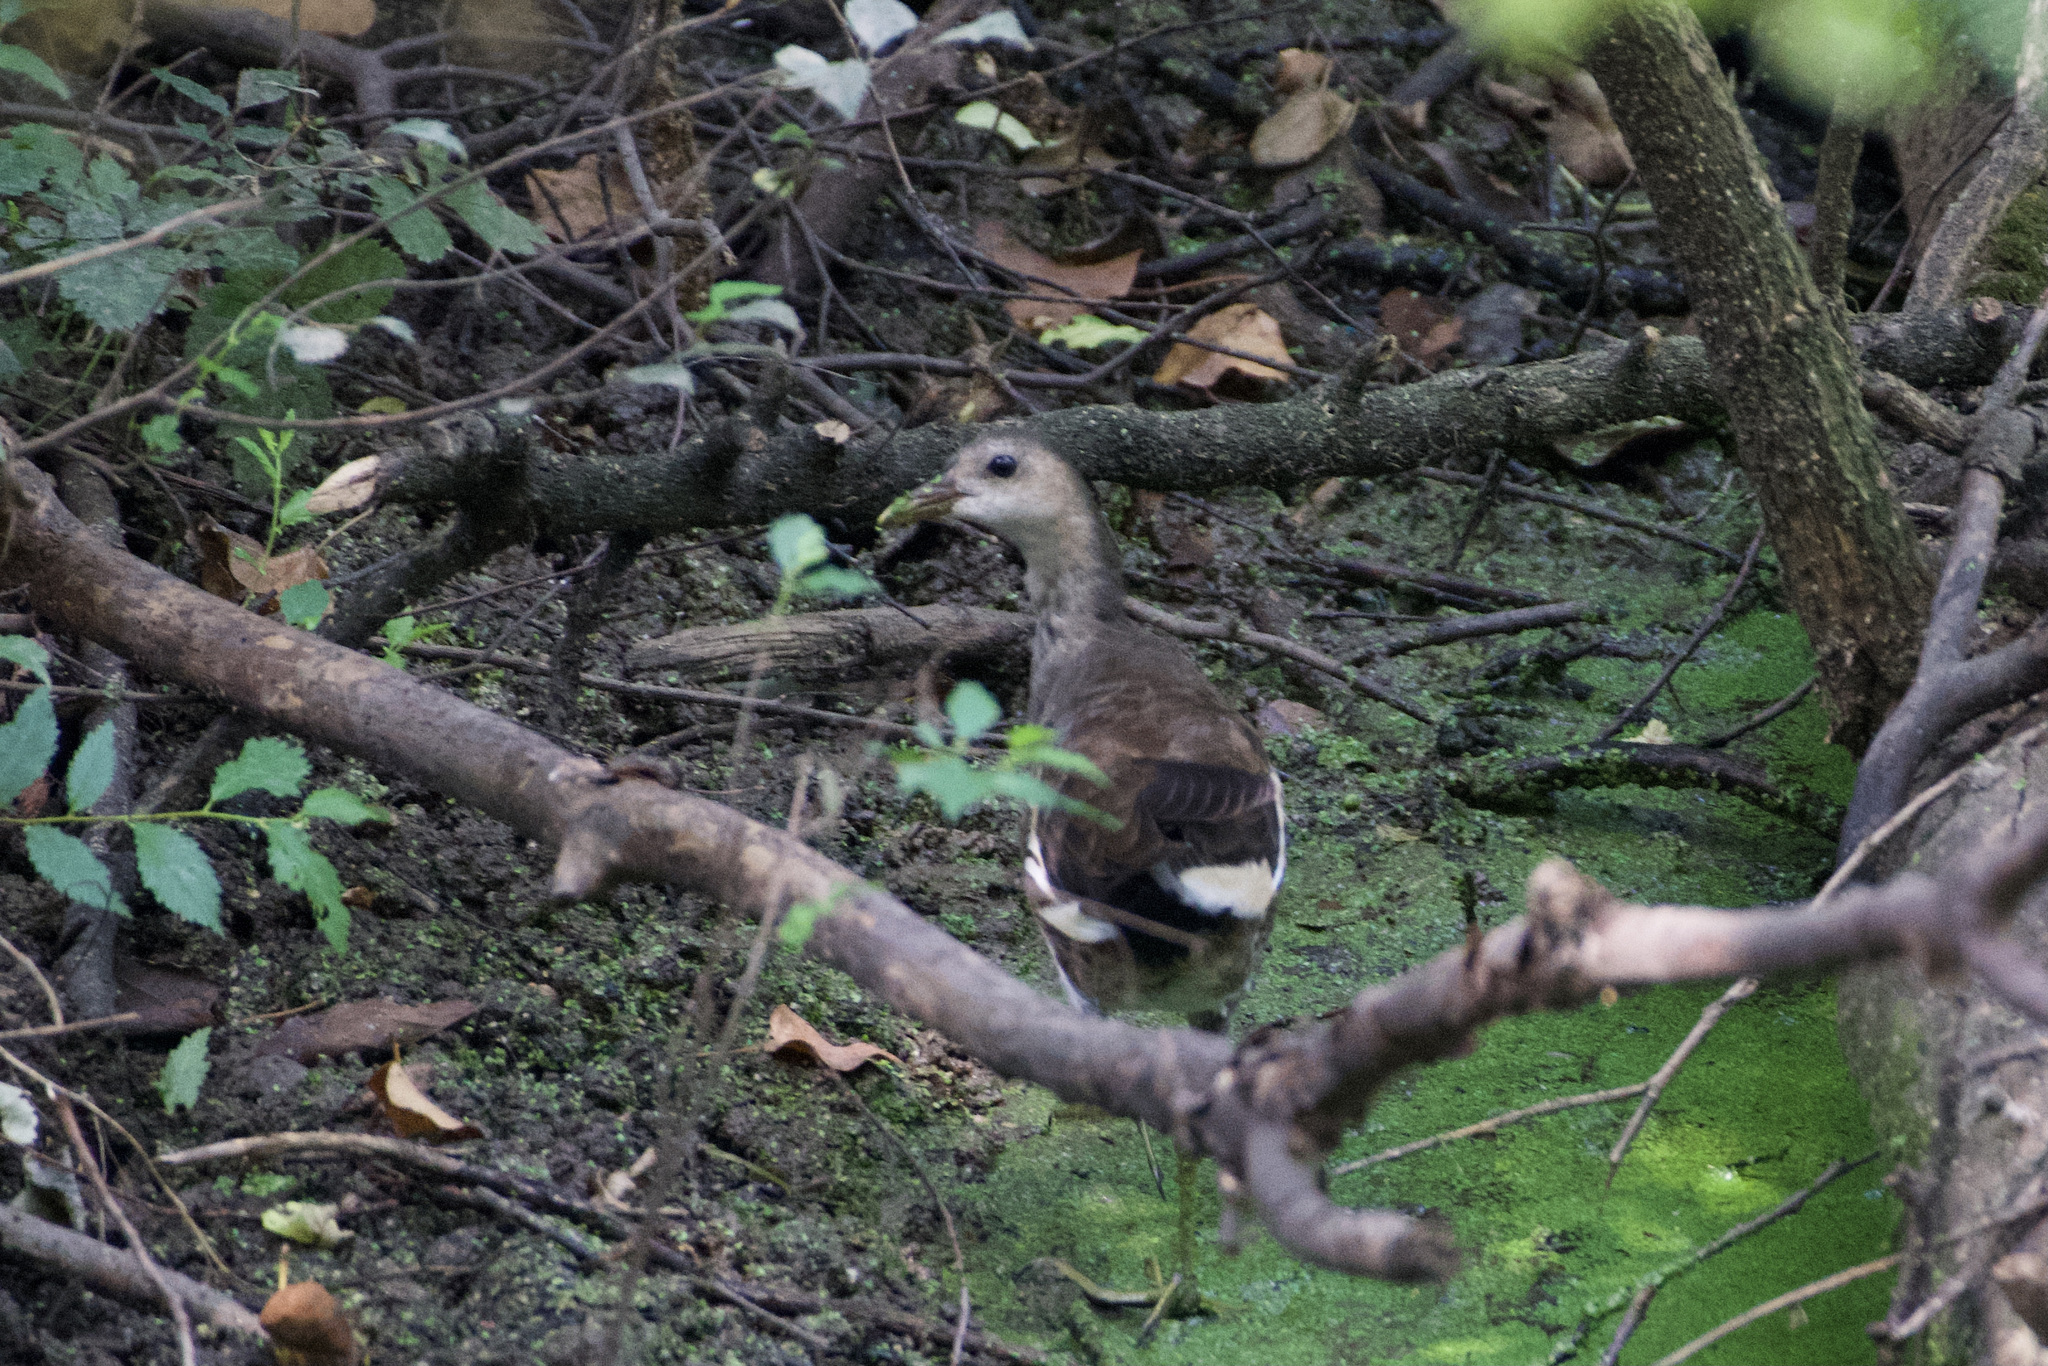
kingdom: Animalia
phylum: Chordata
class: Aves
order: Gruiformes
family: Rallidae
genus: Gallinula
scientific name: Gallinula chloropus
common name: Common moorhen
